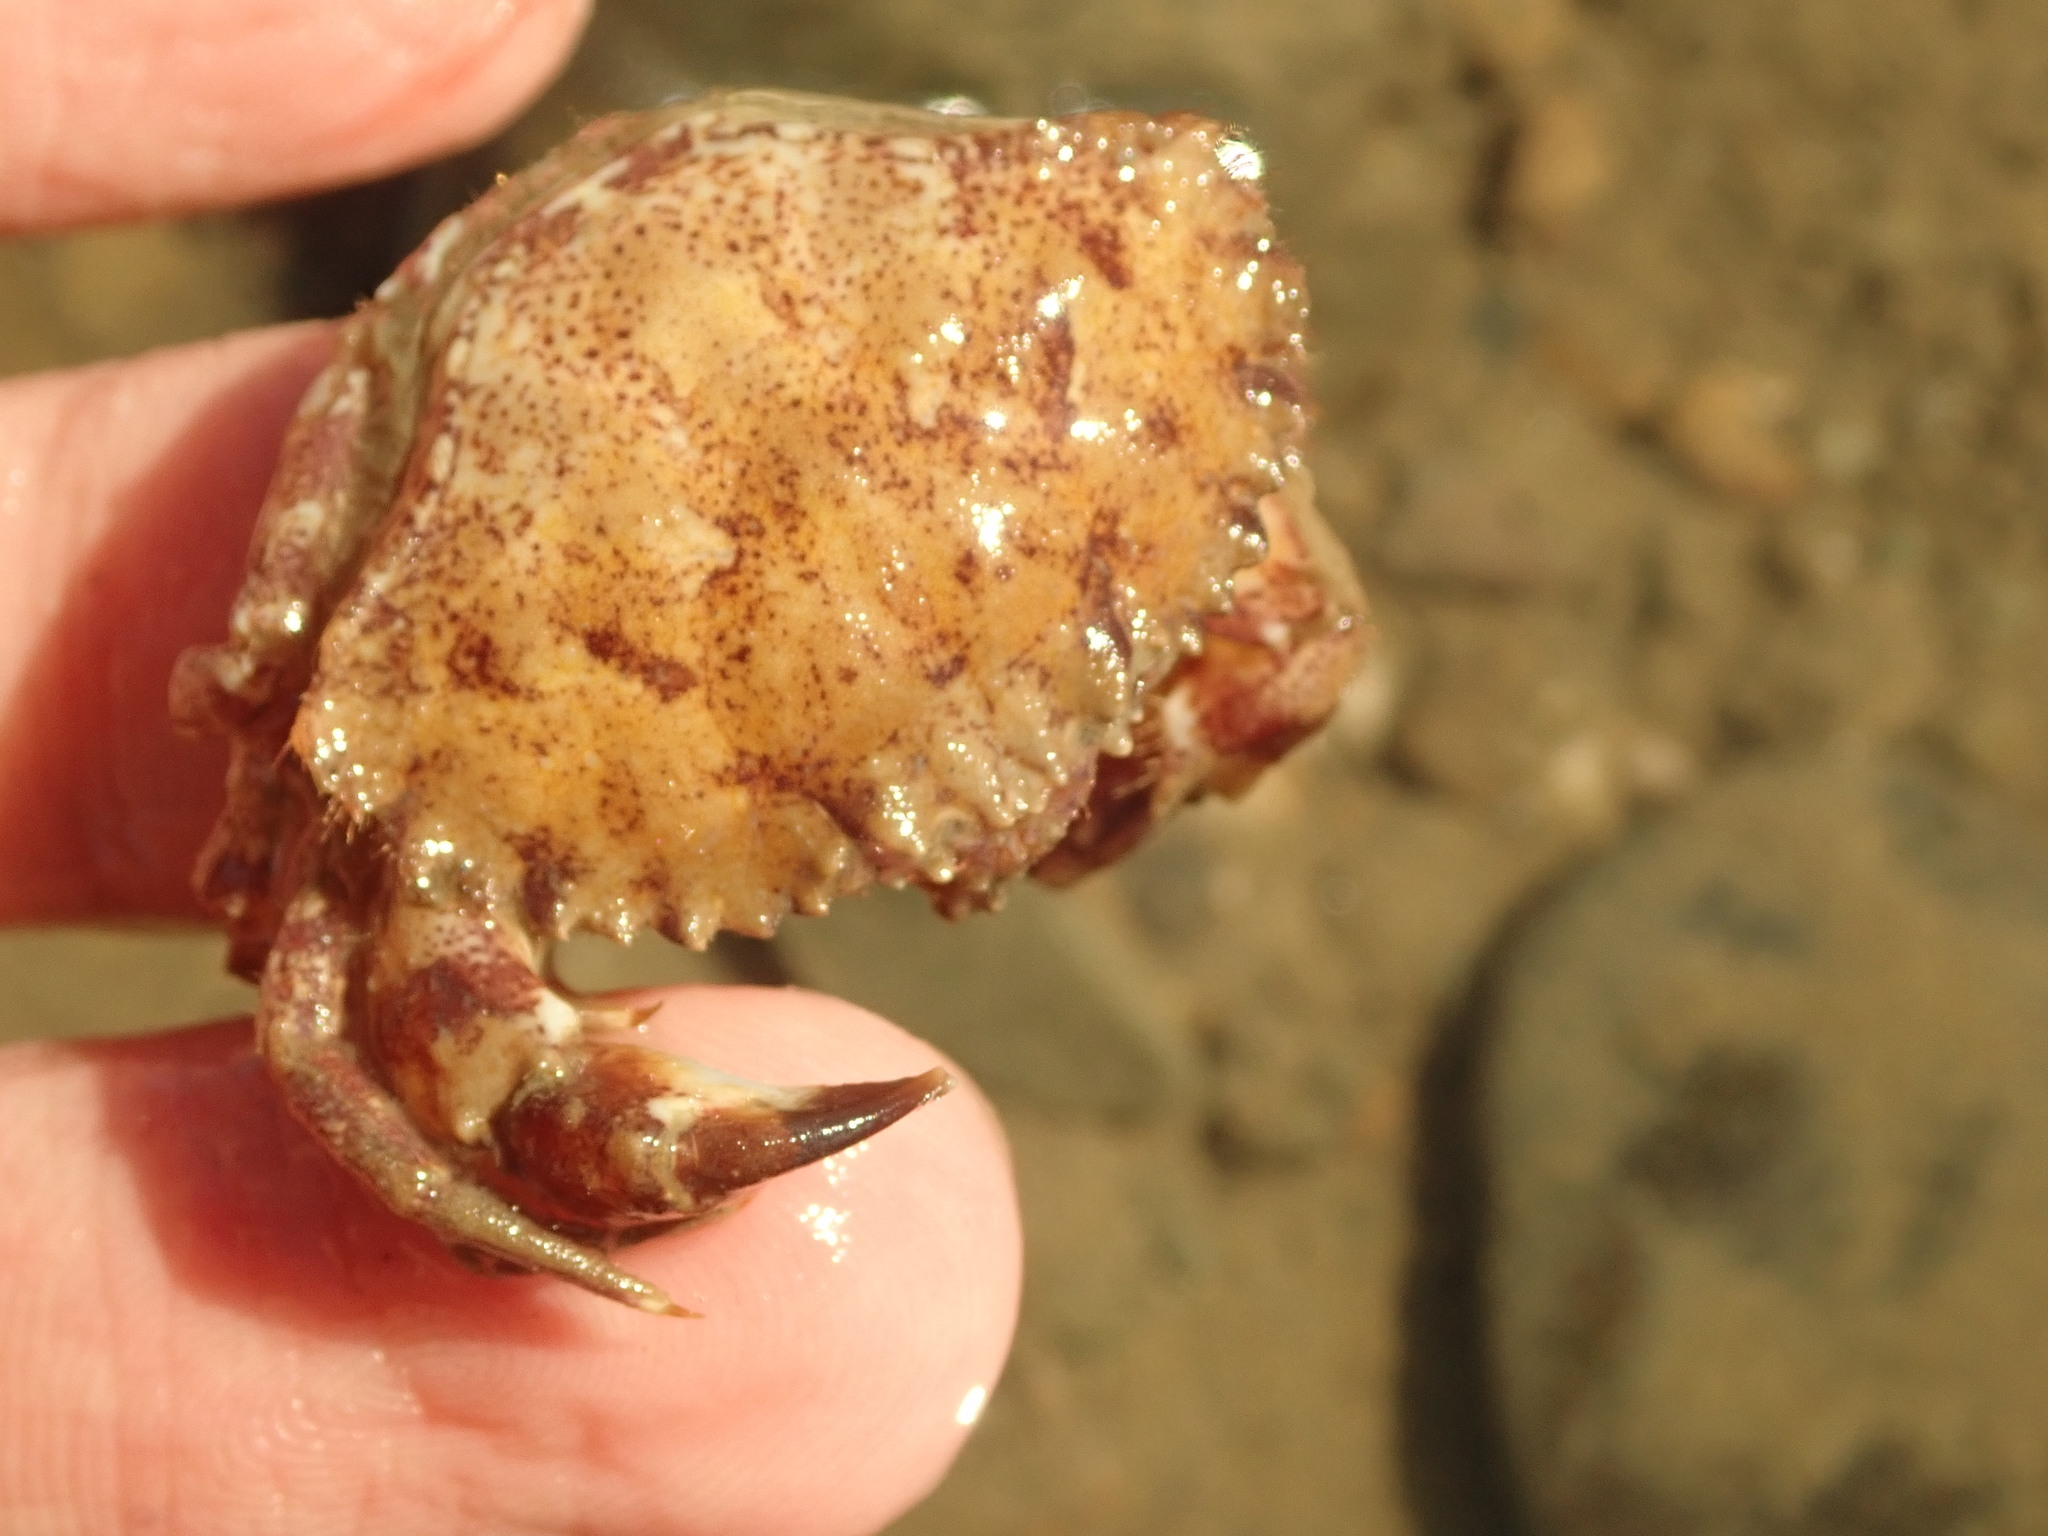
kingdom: Animalia
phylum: Arthropoda
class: Malacostraca
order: Decapoda
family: Cancridae
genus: Romaleon
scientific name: Romaleon antennarium
